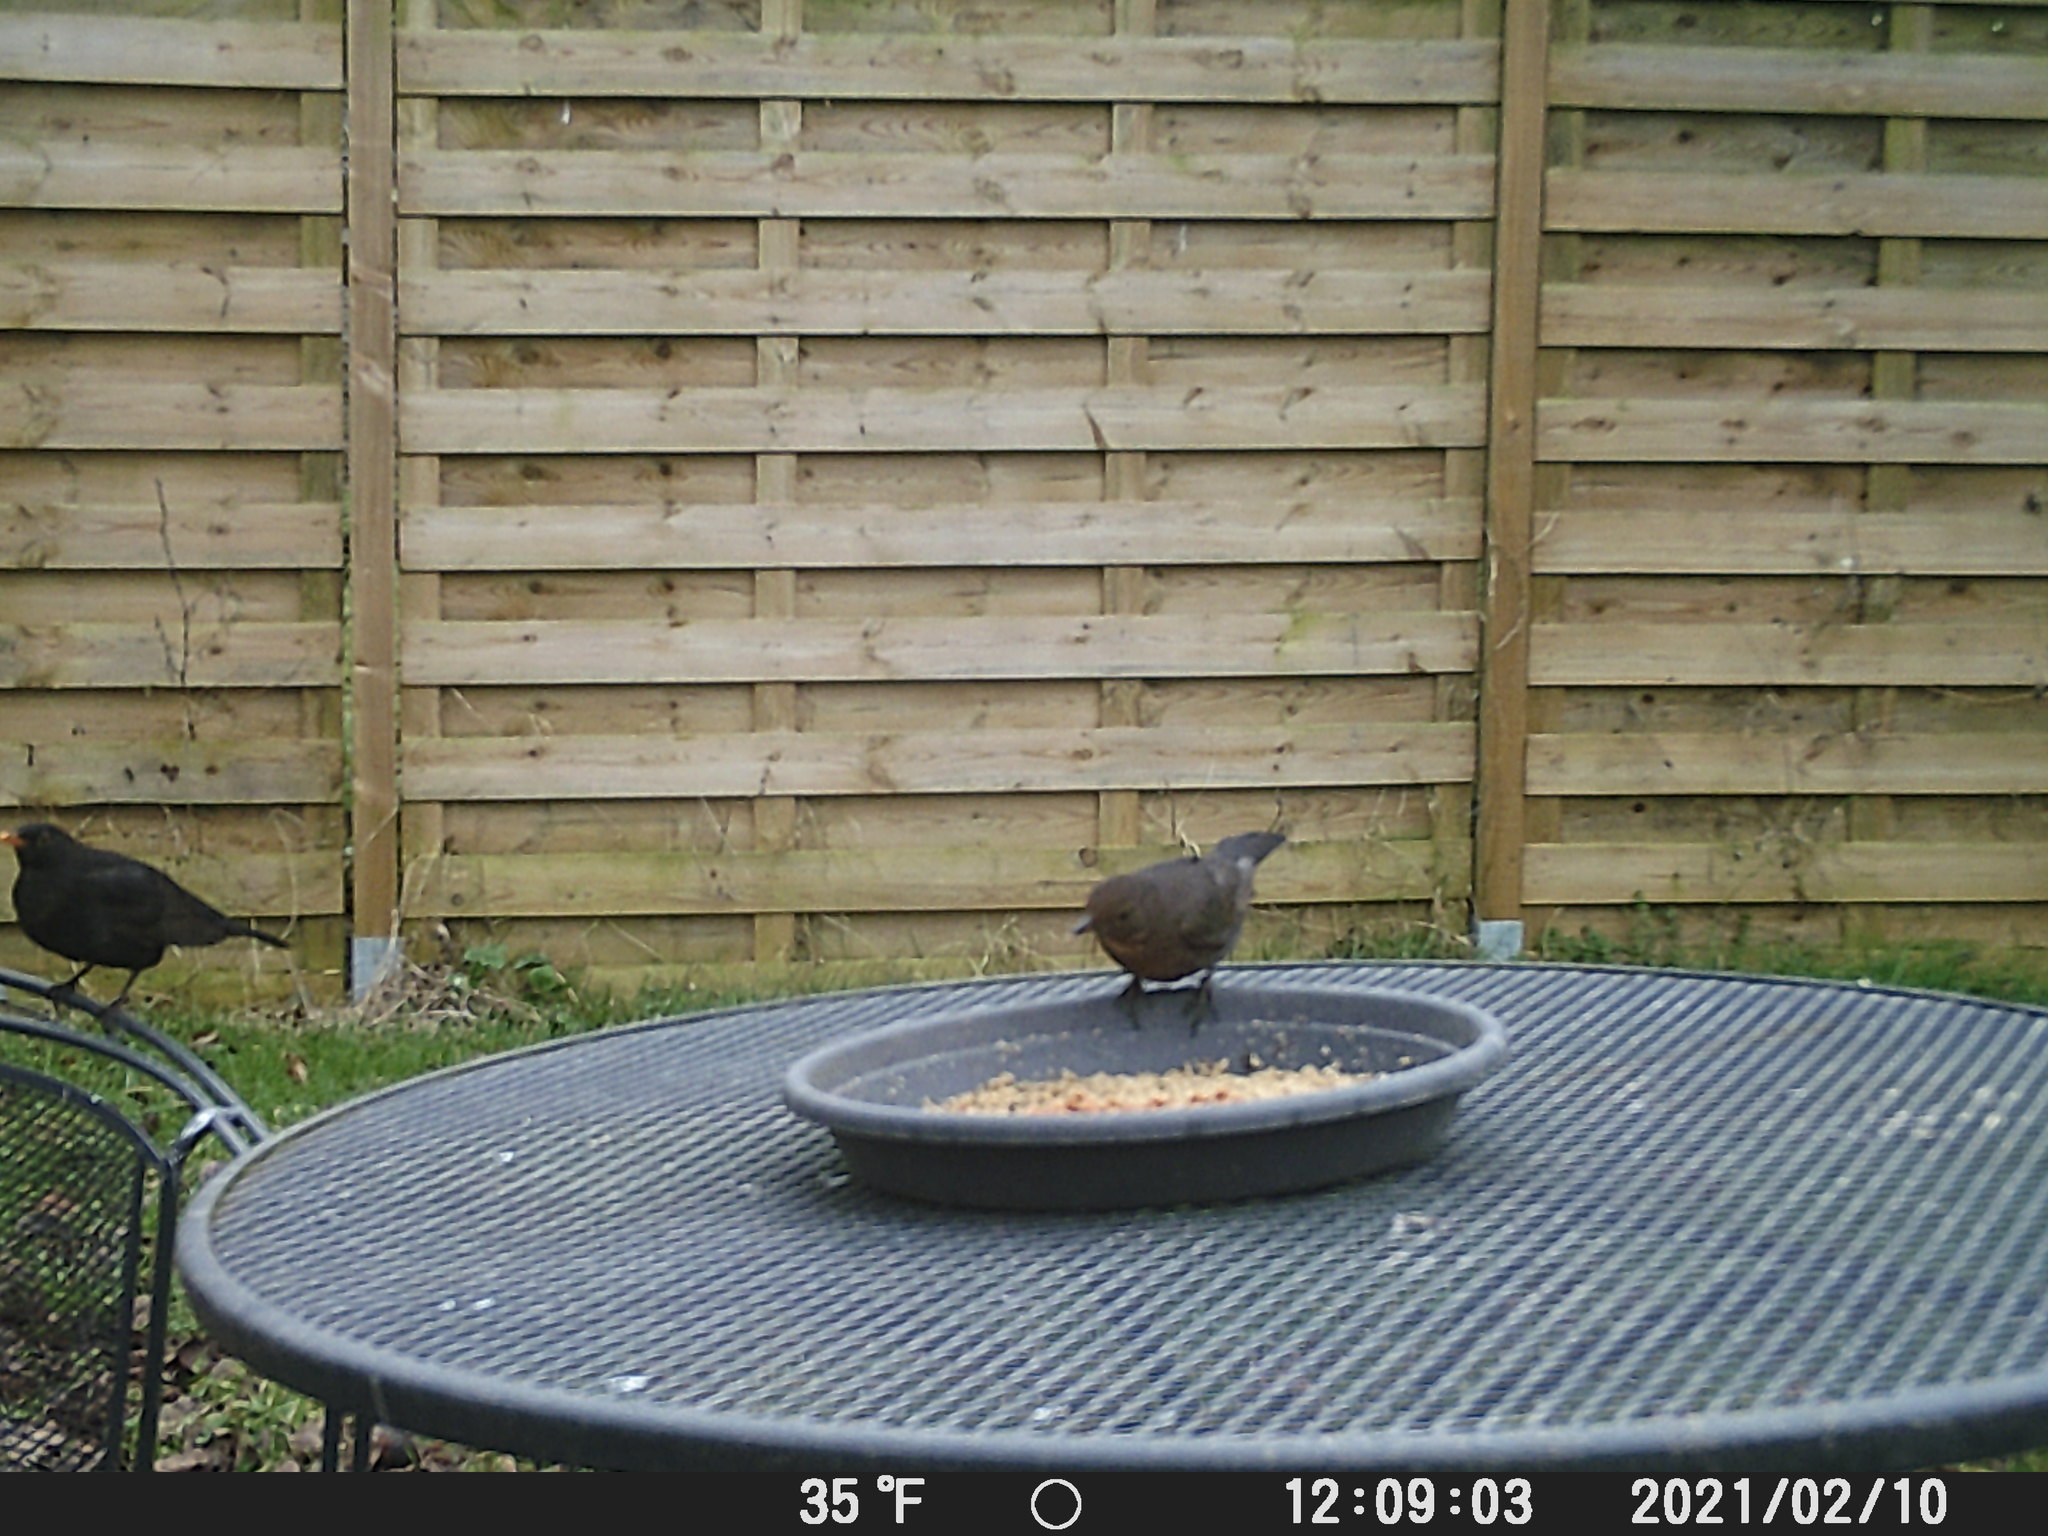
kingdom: Animalia
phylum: Chordata
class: Aves
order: Passeriformes
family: Turdidae
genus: Turdus
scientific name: Turdus merula
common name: Common blackbird
